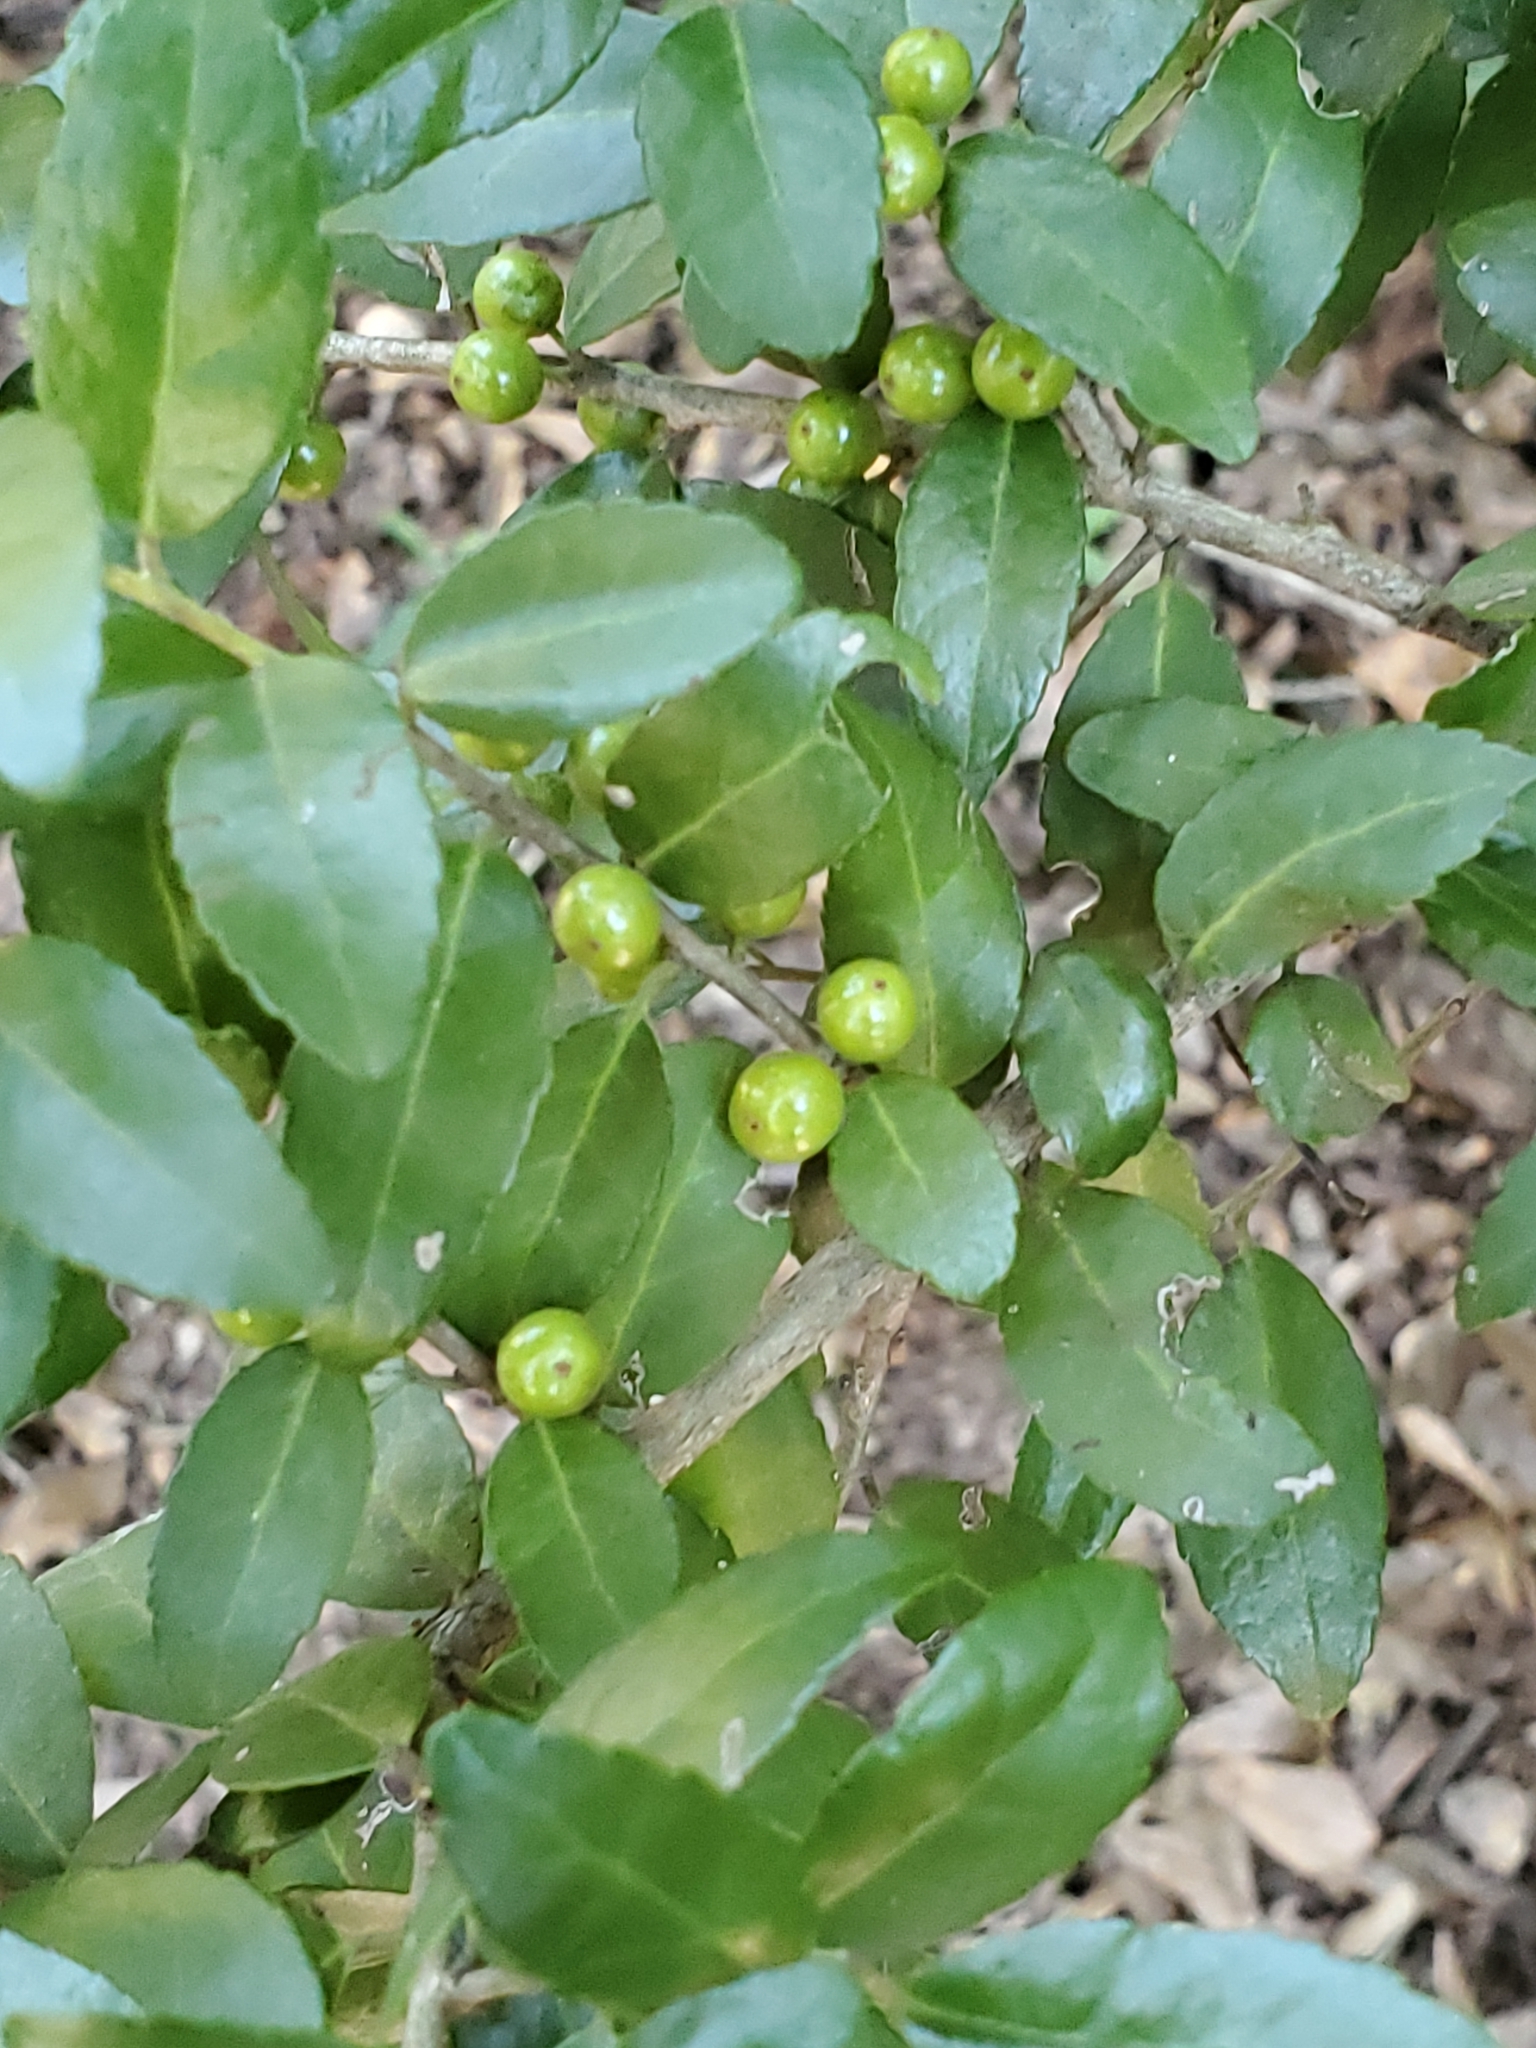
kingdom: Plantae
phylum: Tracheophyta
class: Magnoliopsida
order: Aquifoliales
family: Aquifoliaceae
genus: Ilex
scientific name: Ilex vomitoria
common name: Yaupon holly
